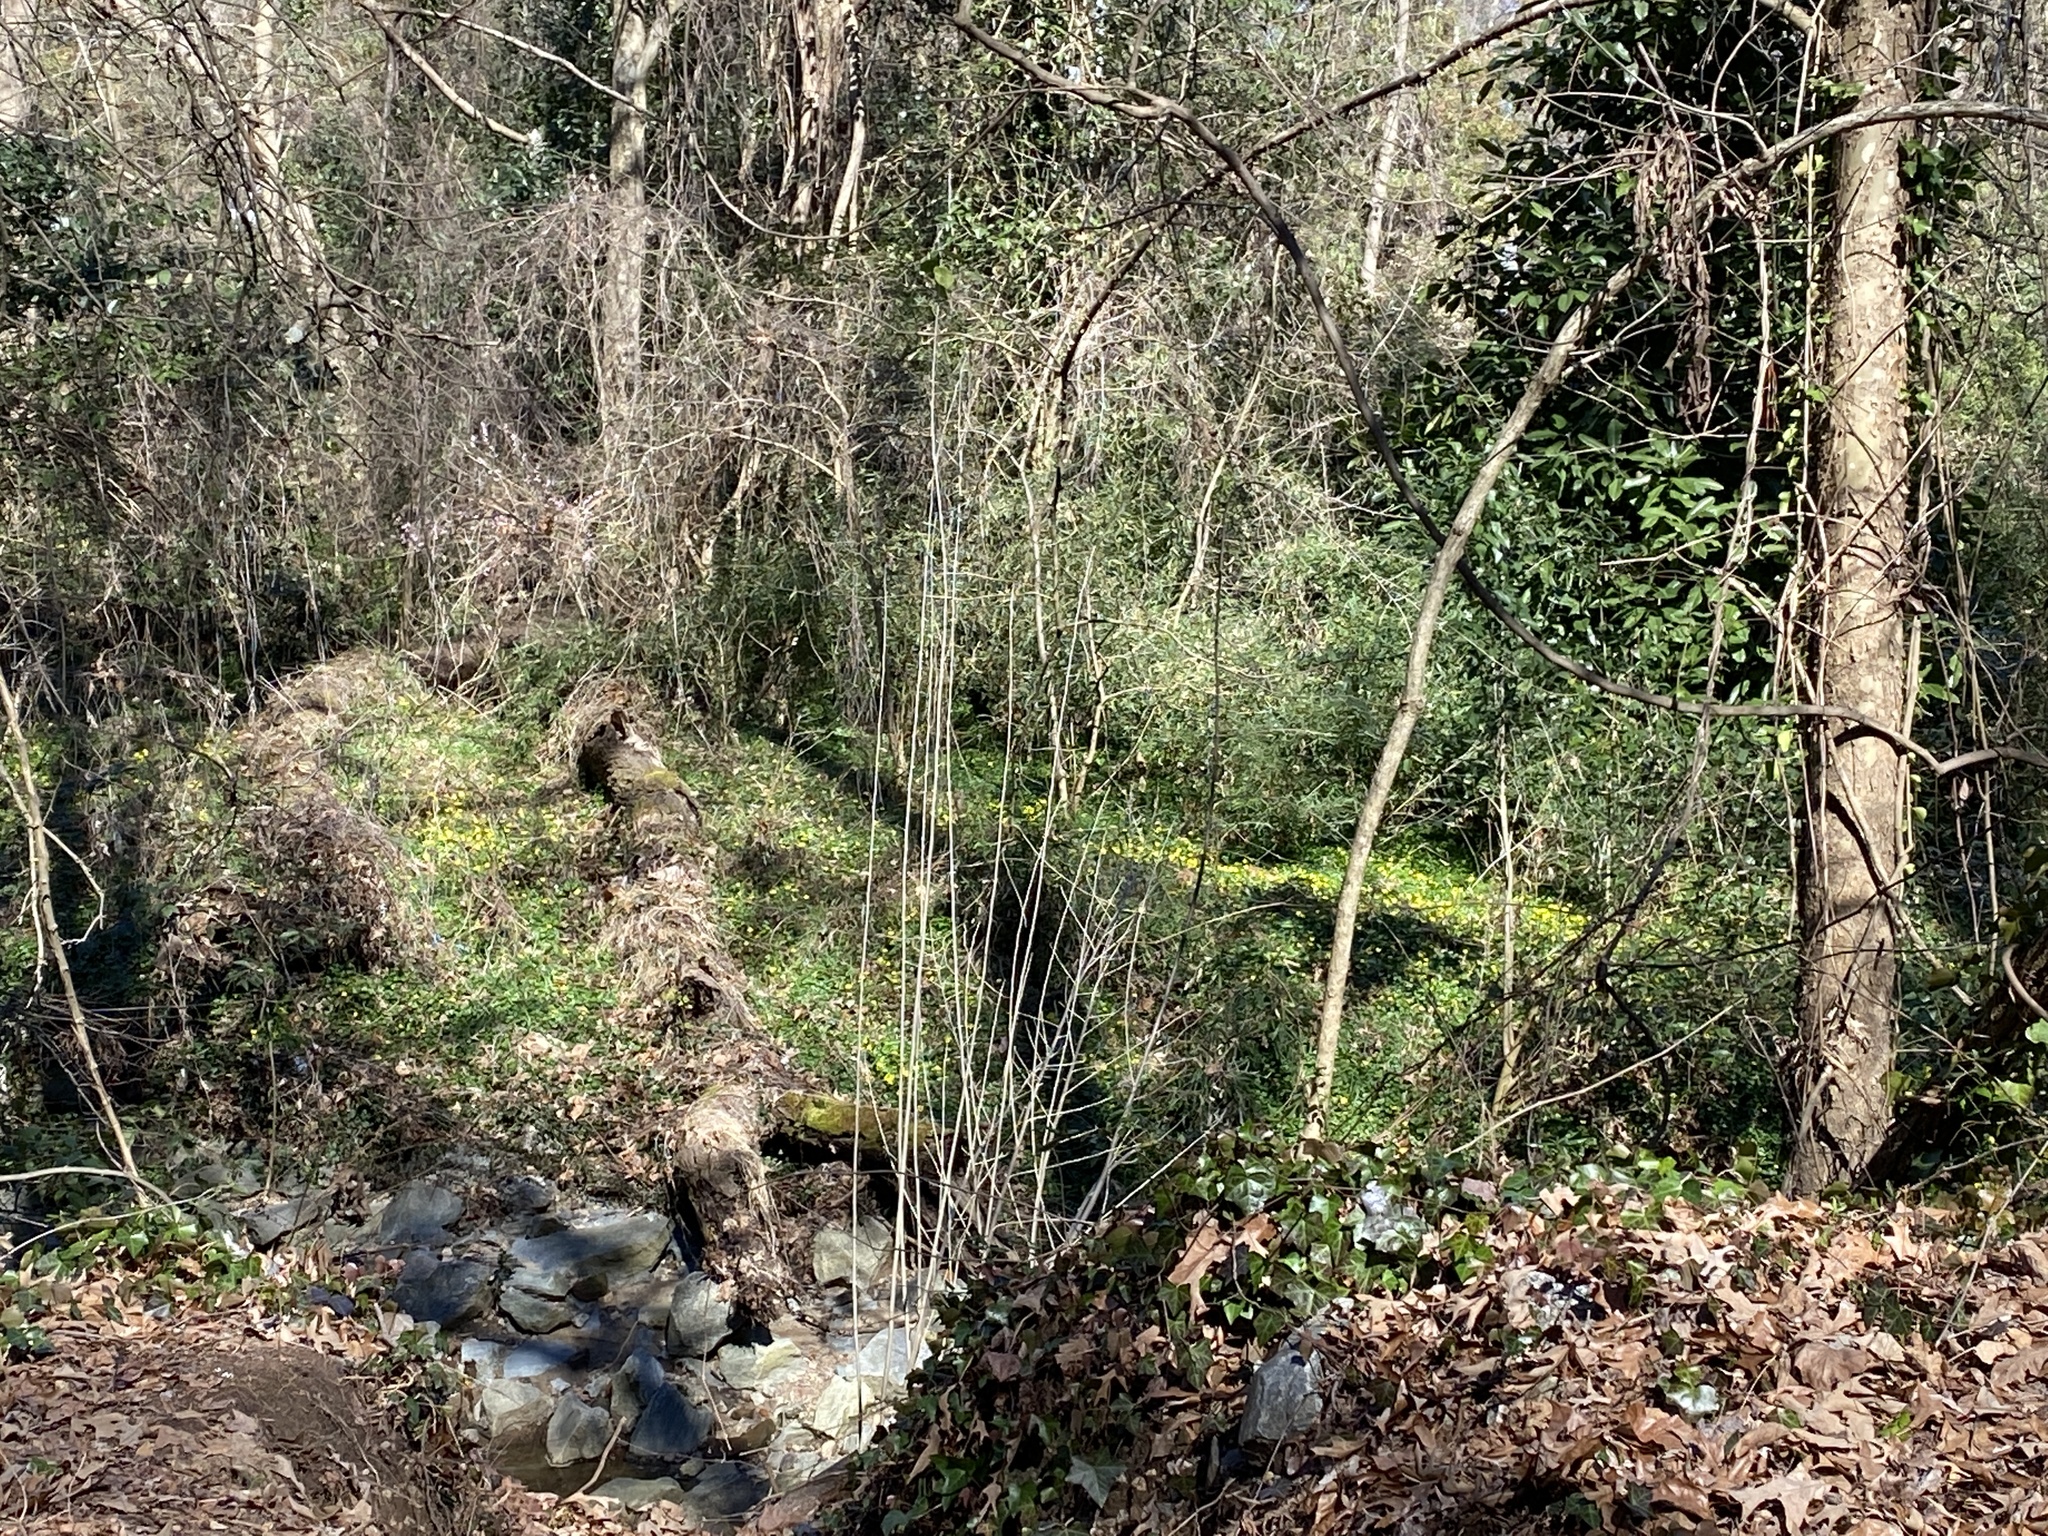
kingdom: Plantae
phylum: Tracheophyta
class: Magnoliopsida
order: Ranunculales
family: Ranunculaceae
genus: Ficaria
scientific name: Ficaria verna
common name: Lesser celandine
